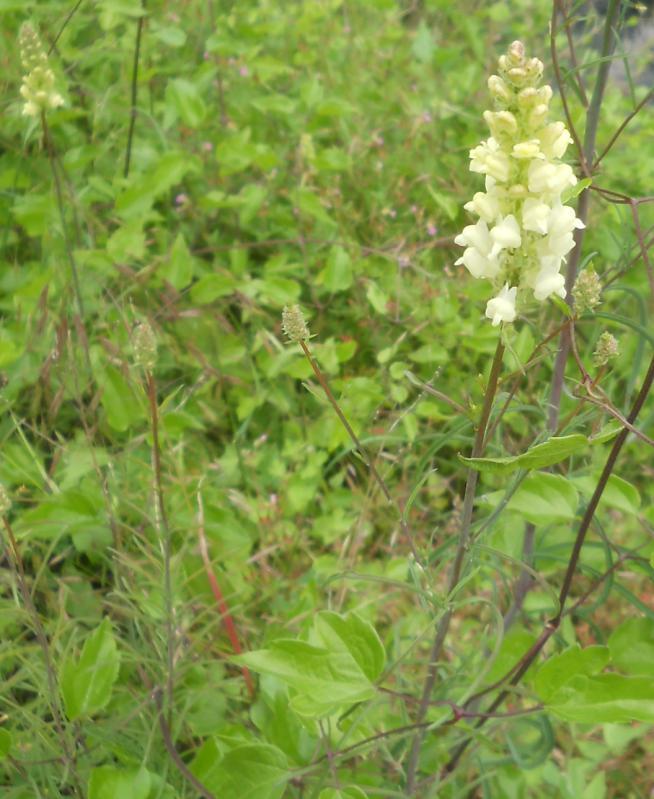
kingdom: Plantae
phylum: Tracheophyta
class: Magnoliopsida
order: Lamiales
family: Plantaginaceae
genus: Linaria
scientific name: Linaria peloponnesiaca
